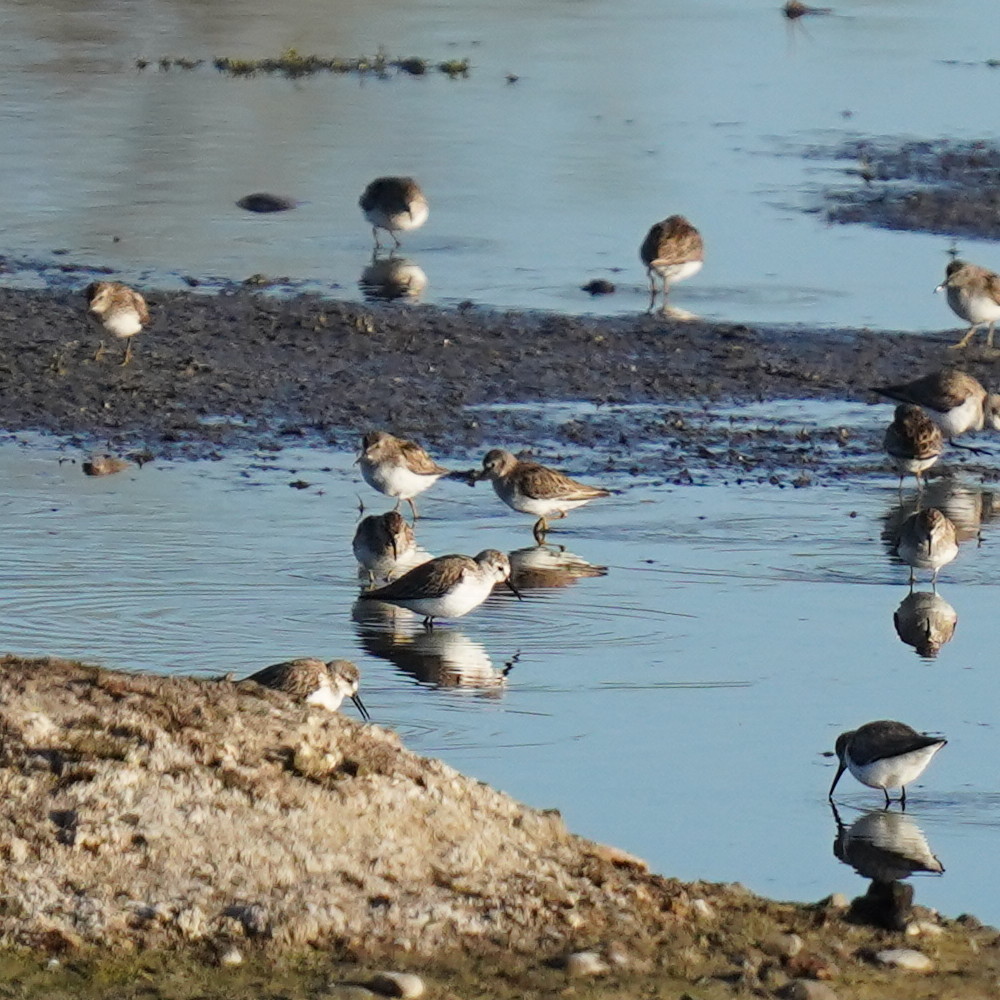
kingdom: Animalia
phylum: Chordata
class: Aves
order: Charadriiformes
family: Scolopacidae
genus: Calidris
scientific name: Calidris minutilla
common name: Least sandpiper
